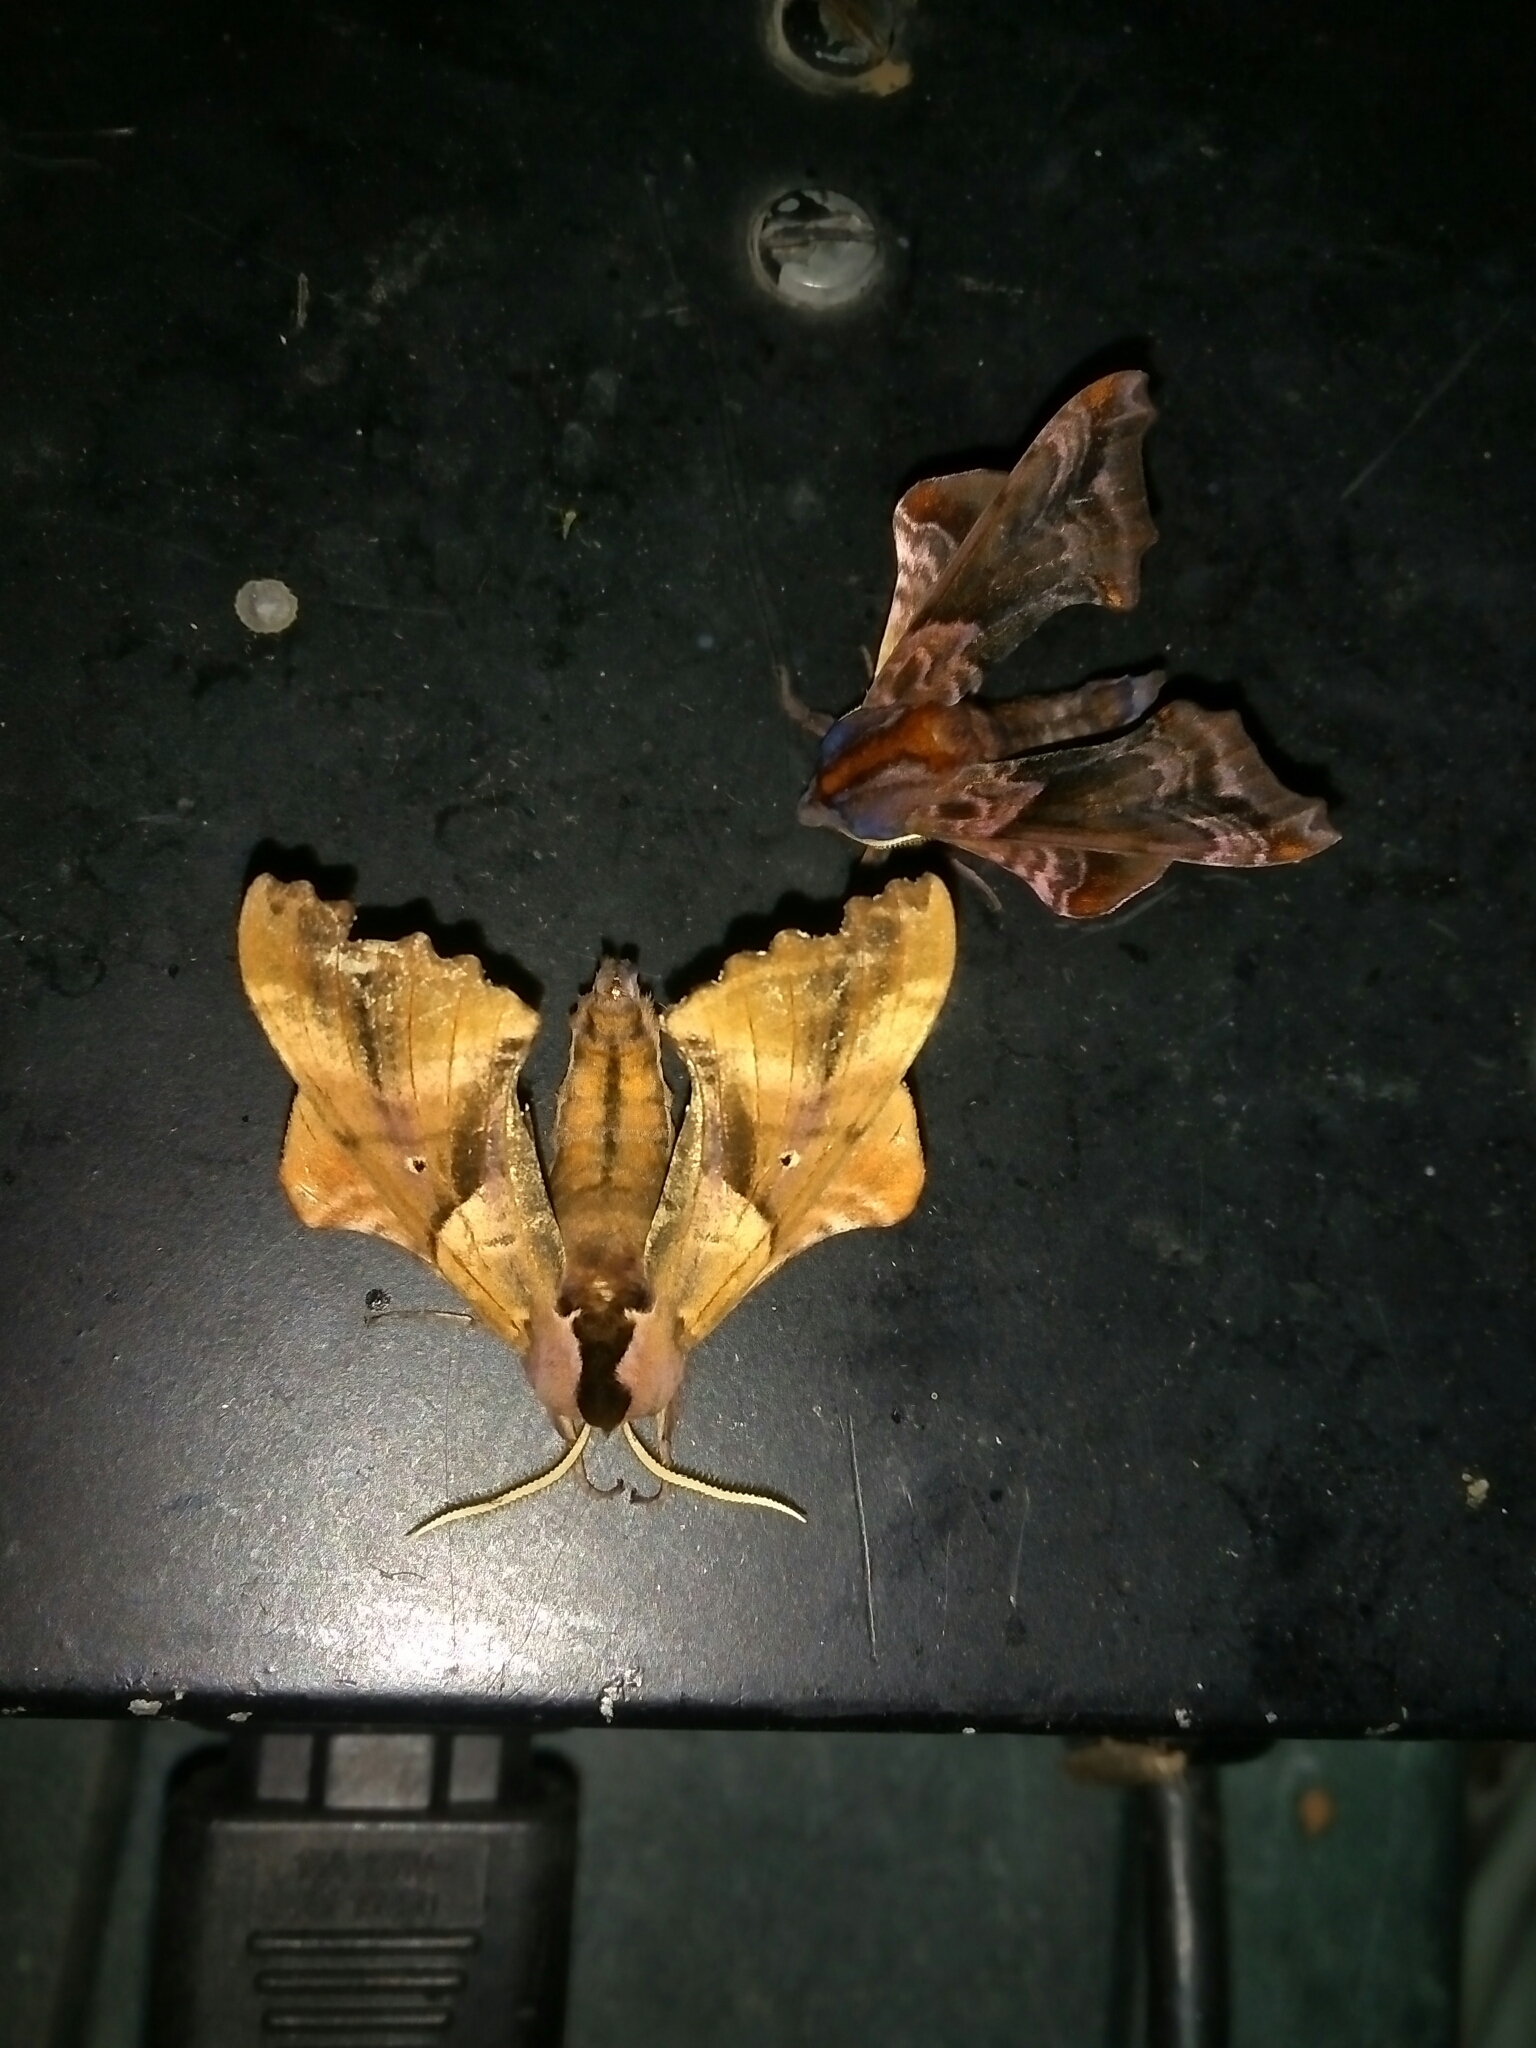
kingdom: Animalia
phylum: Arthropoda
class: Insecta
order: Lepidoptera
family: Sphingidae
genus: Paonias
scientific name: Paonias excaecata
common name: Blind-eyed sphinx
